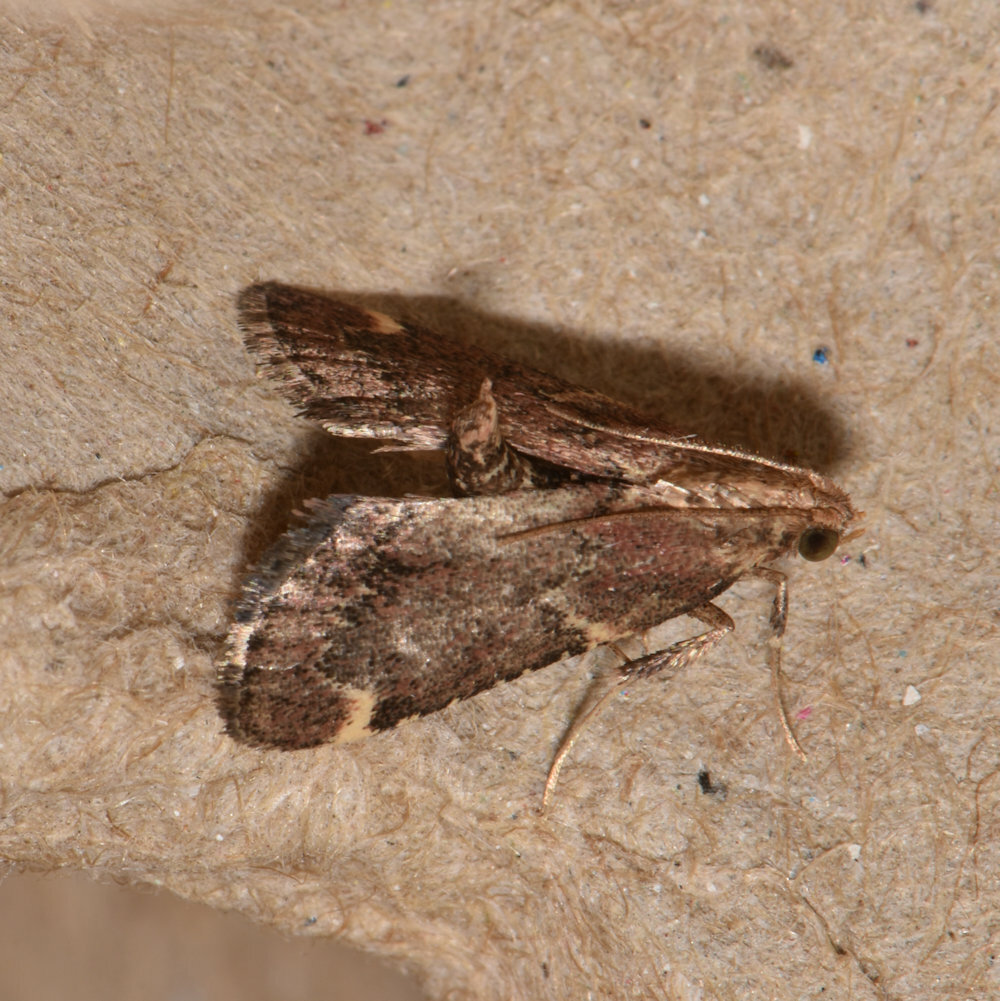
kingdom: Animalia
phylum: Arthropoda
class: Insecta
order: Lepidoptera
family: Pyralidae
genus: Hypsopygia
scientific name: Hypsopygia intermedialis
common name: Red-shawled moth
